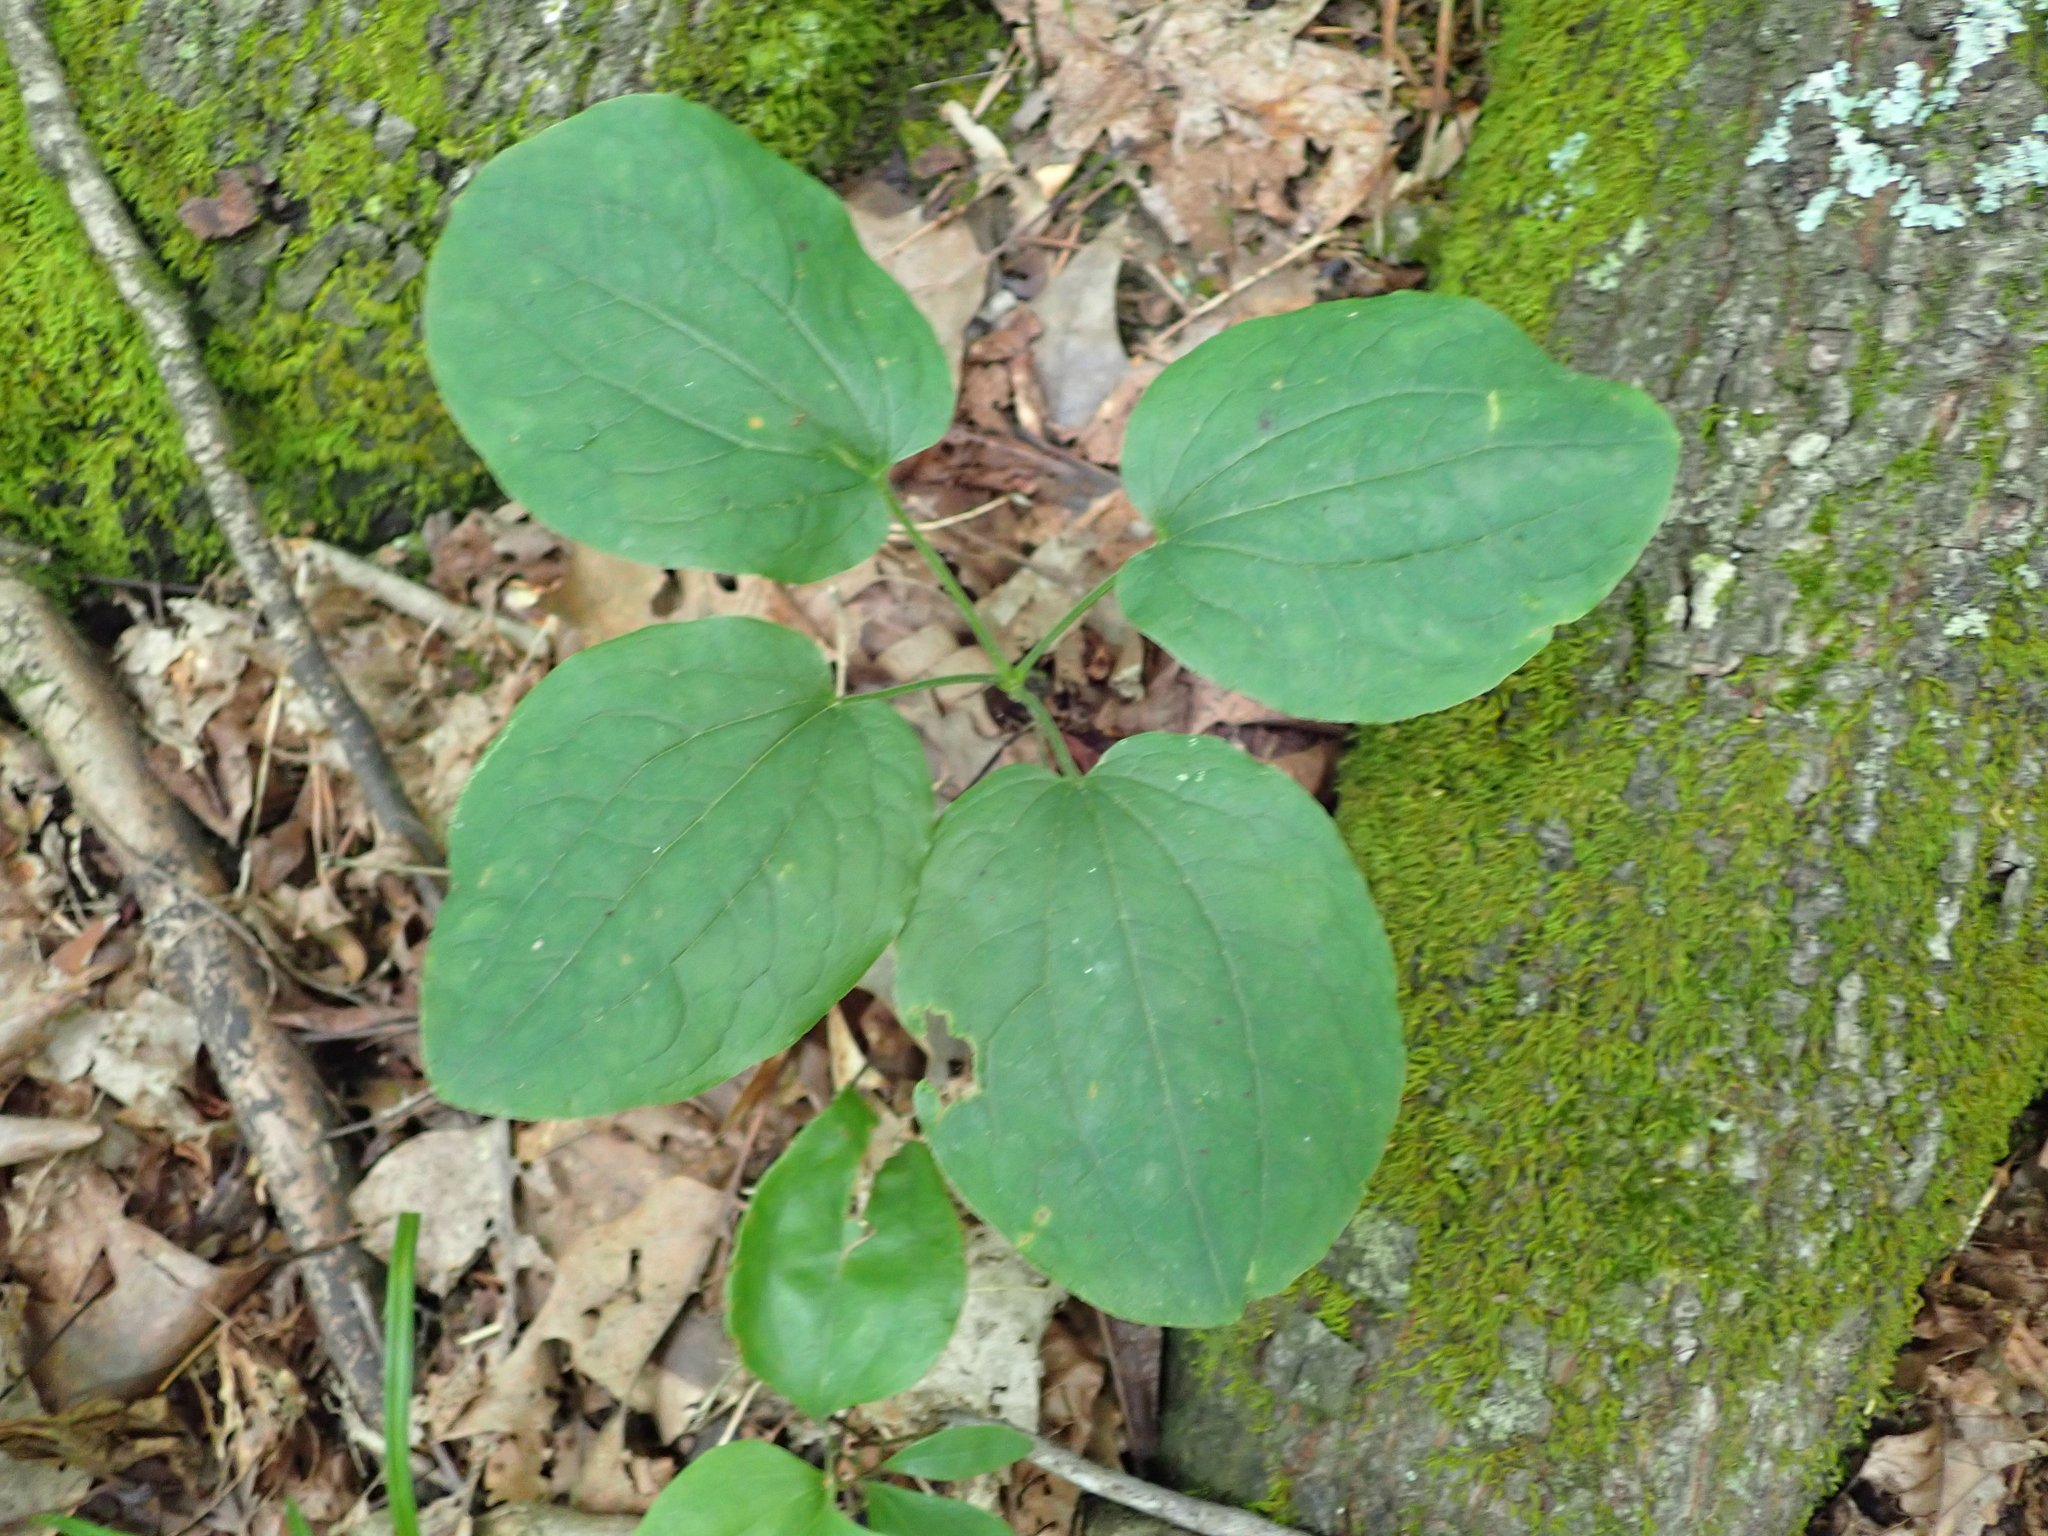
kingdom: Plantae
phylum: Tracheophyta
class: Liliopsida
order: Liliales
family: Smilacaceae
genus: Smilax
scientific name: Smilax ecirrhata
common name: Upright carrionflower
